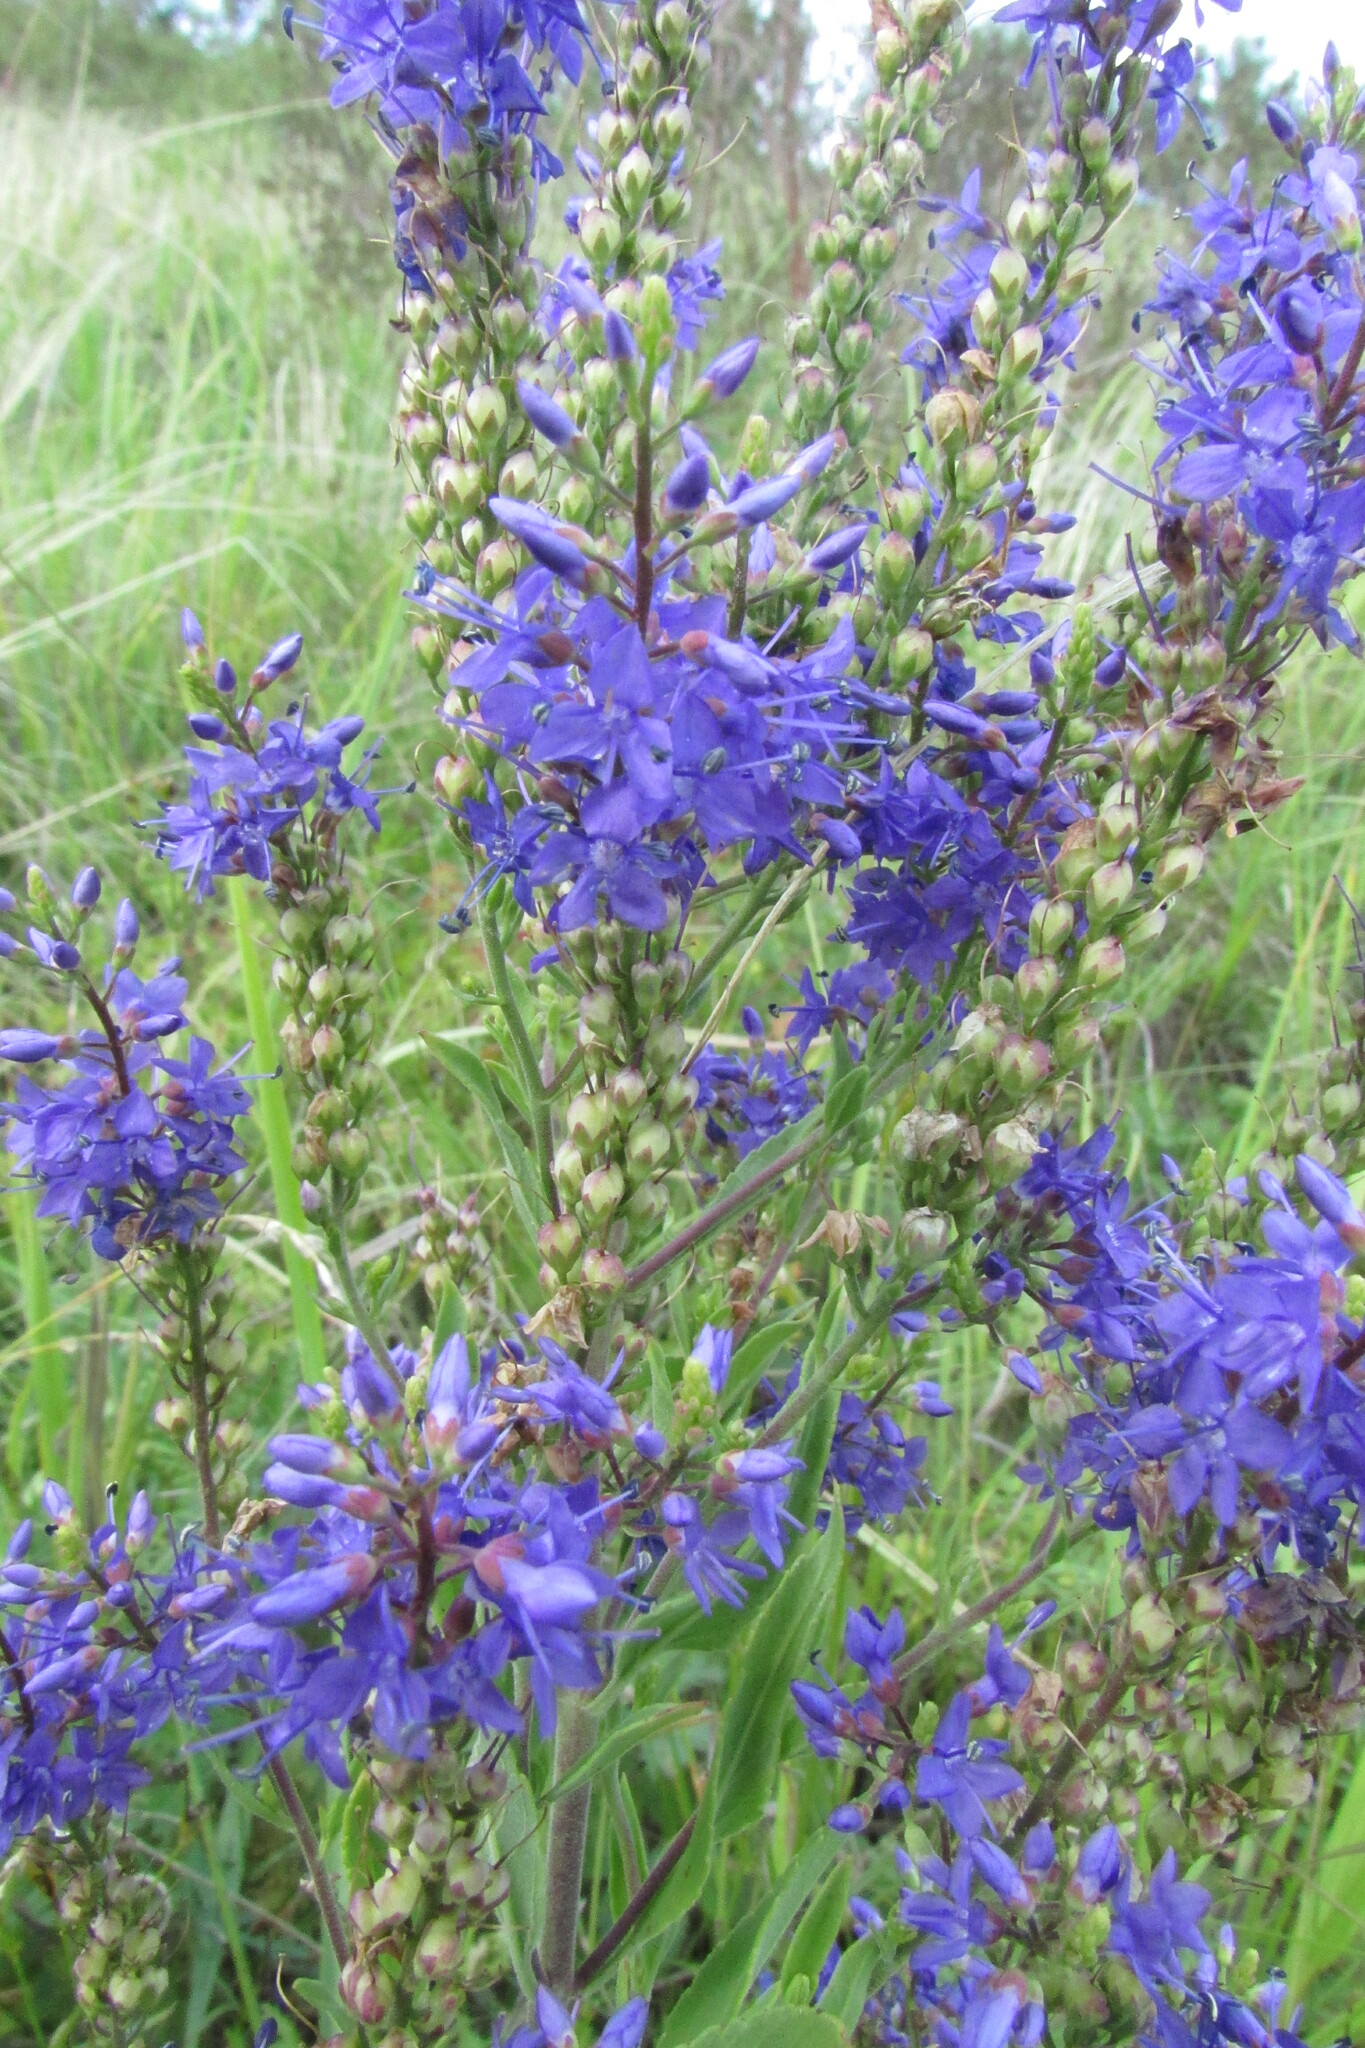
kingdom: Plantae
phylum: Tracheophyta
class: Magnoliopsida
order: Lamiales
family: Plantaginaceae
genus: Veronica
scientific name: Veronica spuria
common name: Bastard speedwell
